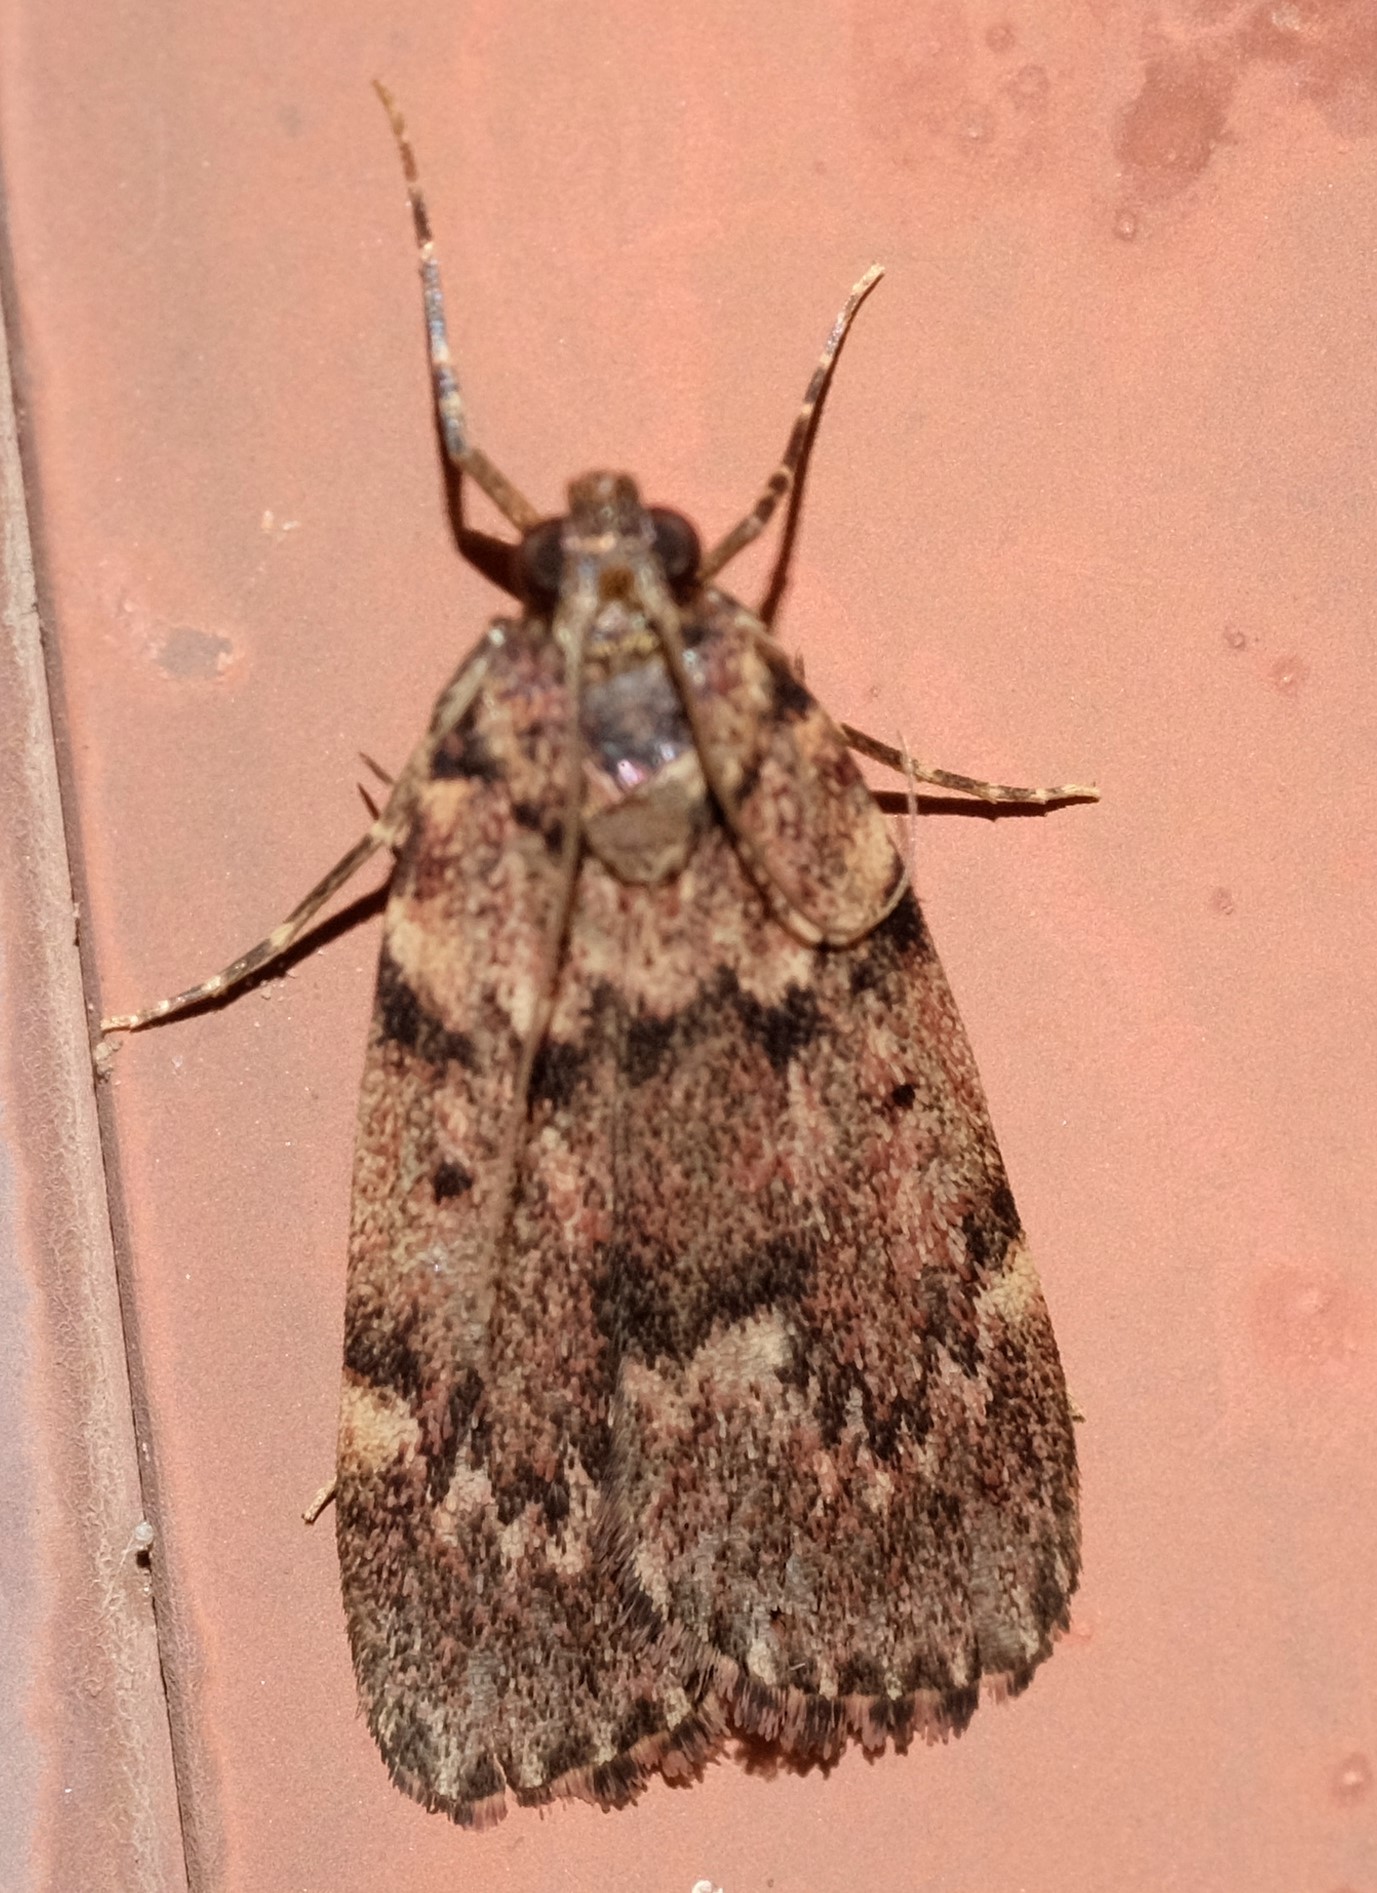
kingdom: Animalia
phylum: Arthropoda
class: Insecta
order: Lepidoptera
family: Pyralidae
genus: Mimaglossa
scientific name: Mimaglossa nauplialis
